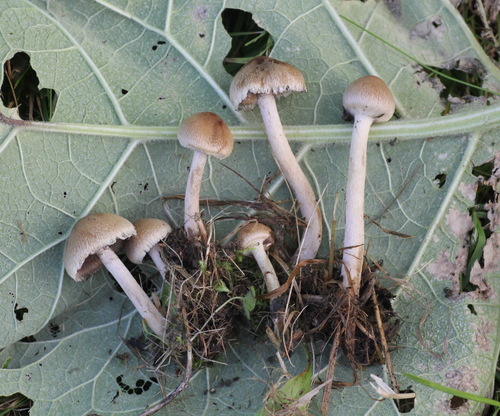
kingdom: Fungi
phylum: Basidiomycota
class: Agaricomycetes
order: Agaricales
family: Psathyrellaceae
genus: Lacrymaria
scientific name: Lacrymaria lacrymabunda
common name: Weeping widow
